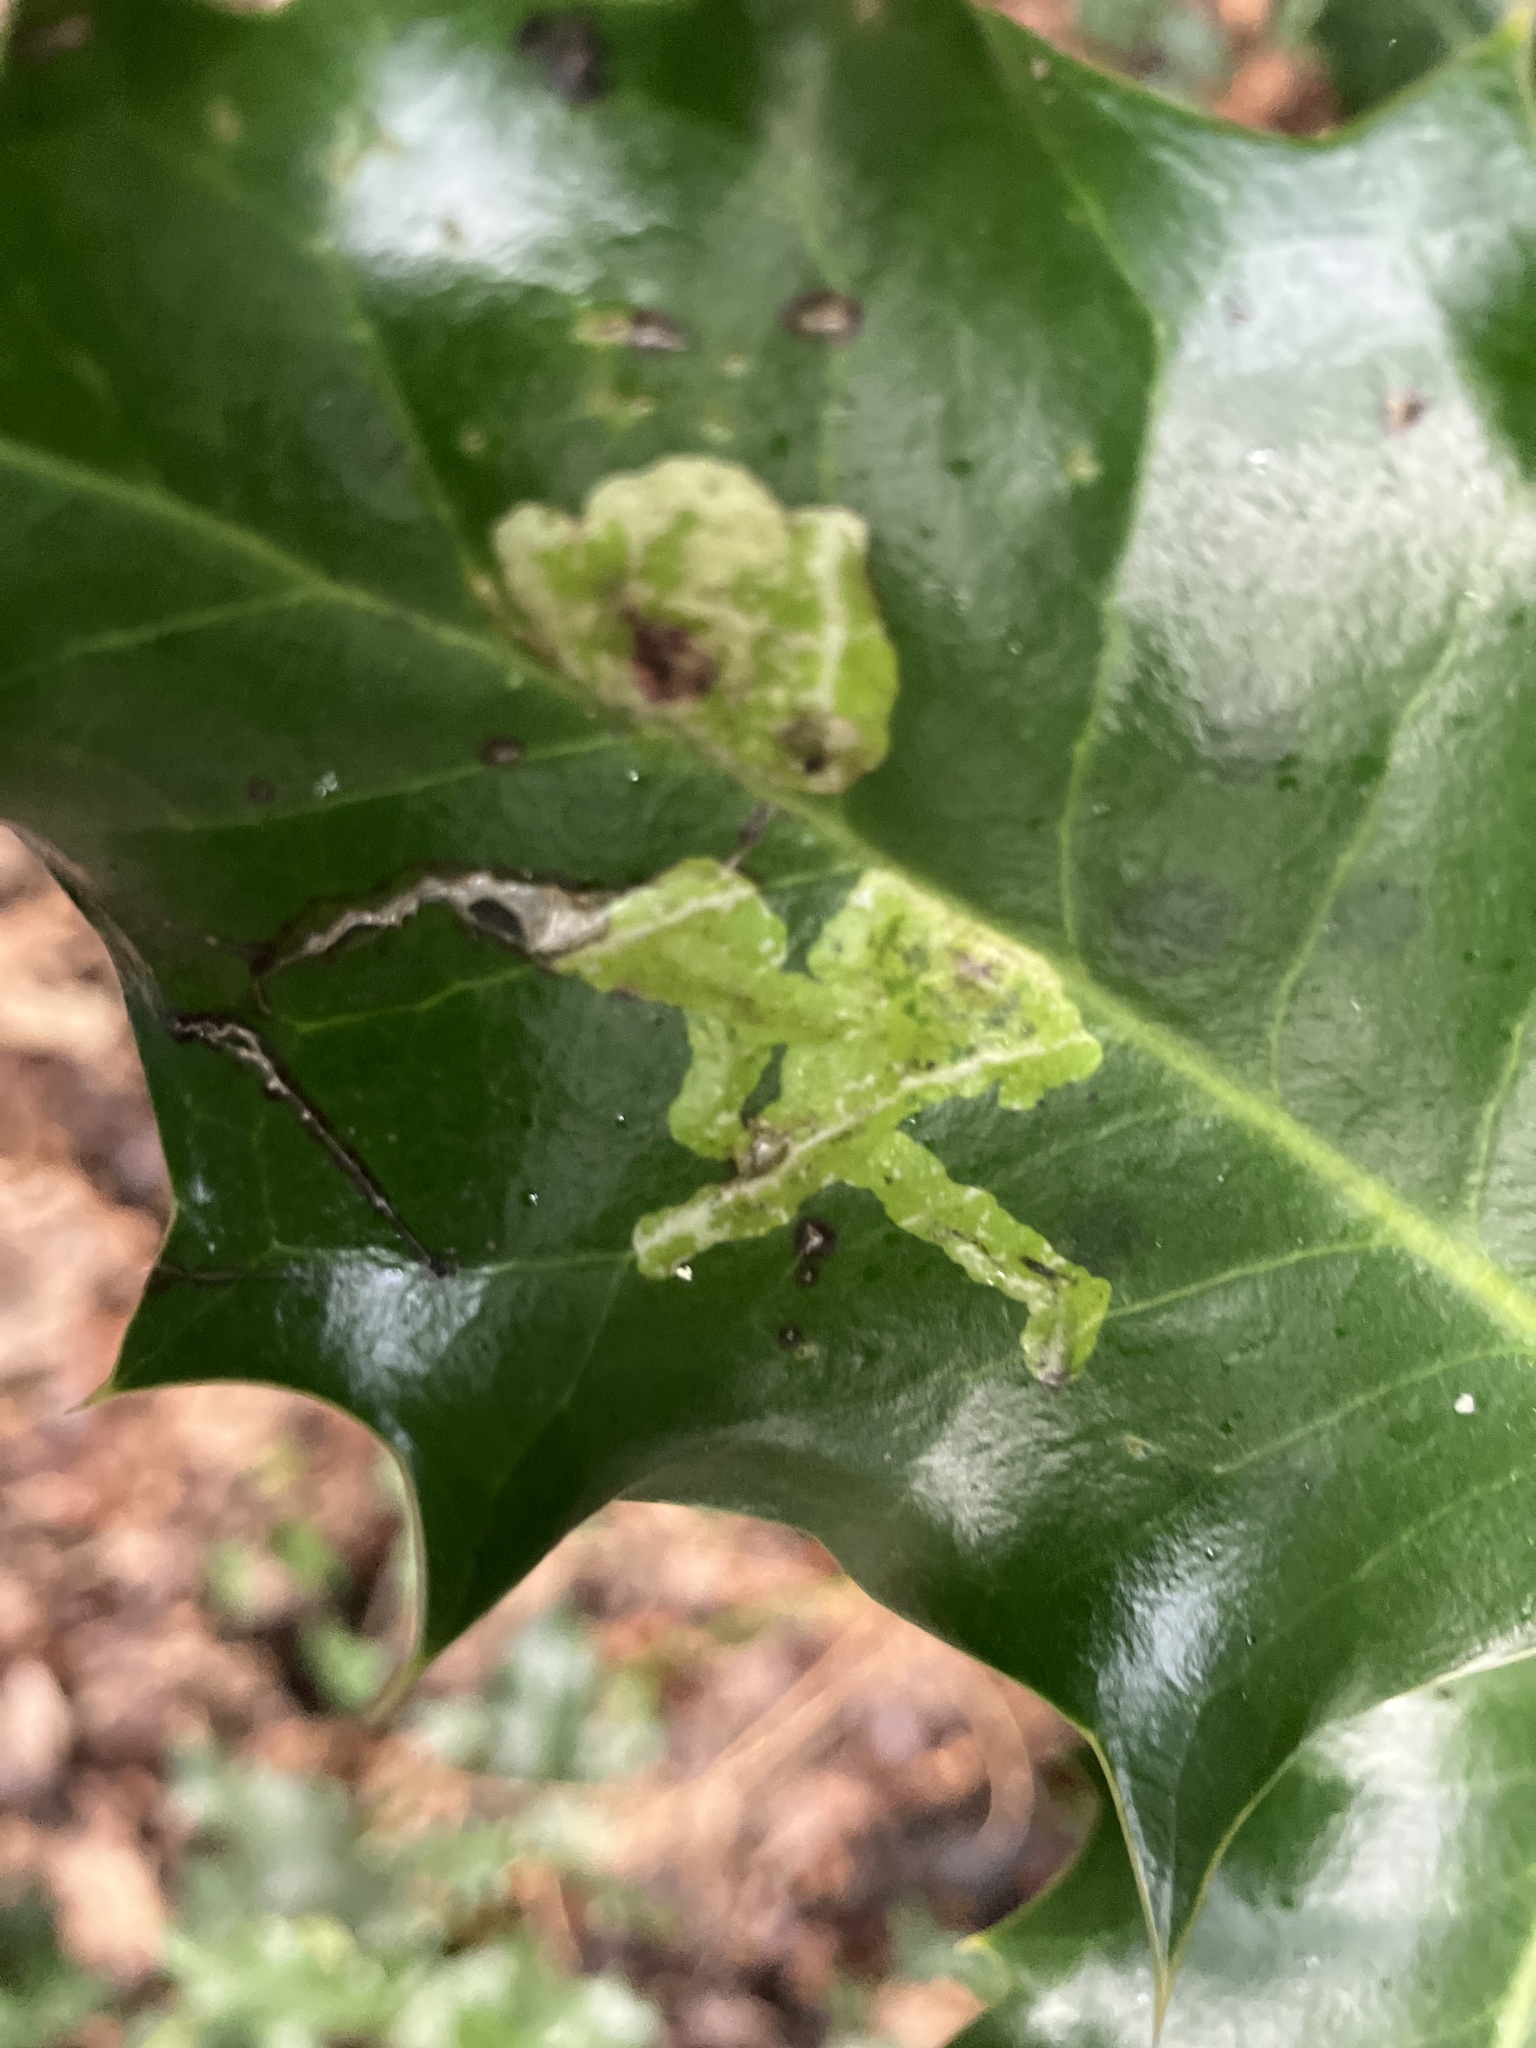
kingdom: Animalia
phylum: Arthropoda
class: Insecta
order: Diptera
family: Agromyzidae
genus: Phytomyza
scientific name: Phytomyza ilicis
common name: Holly leafminer
